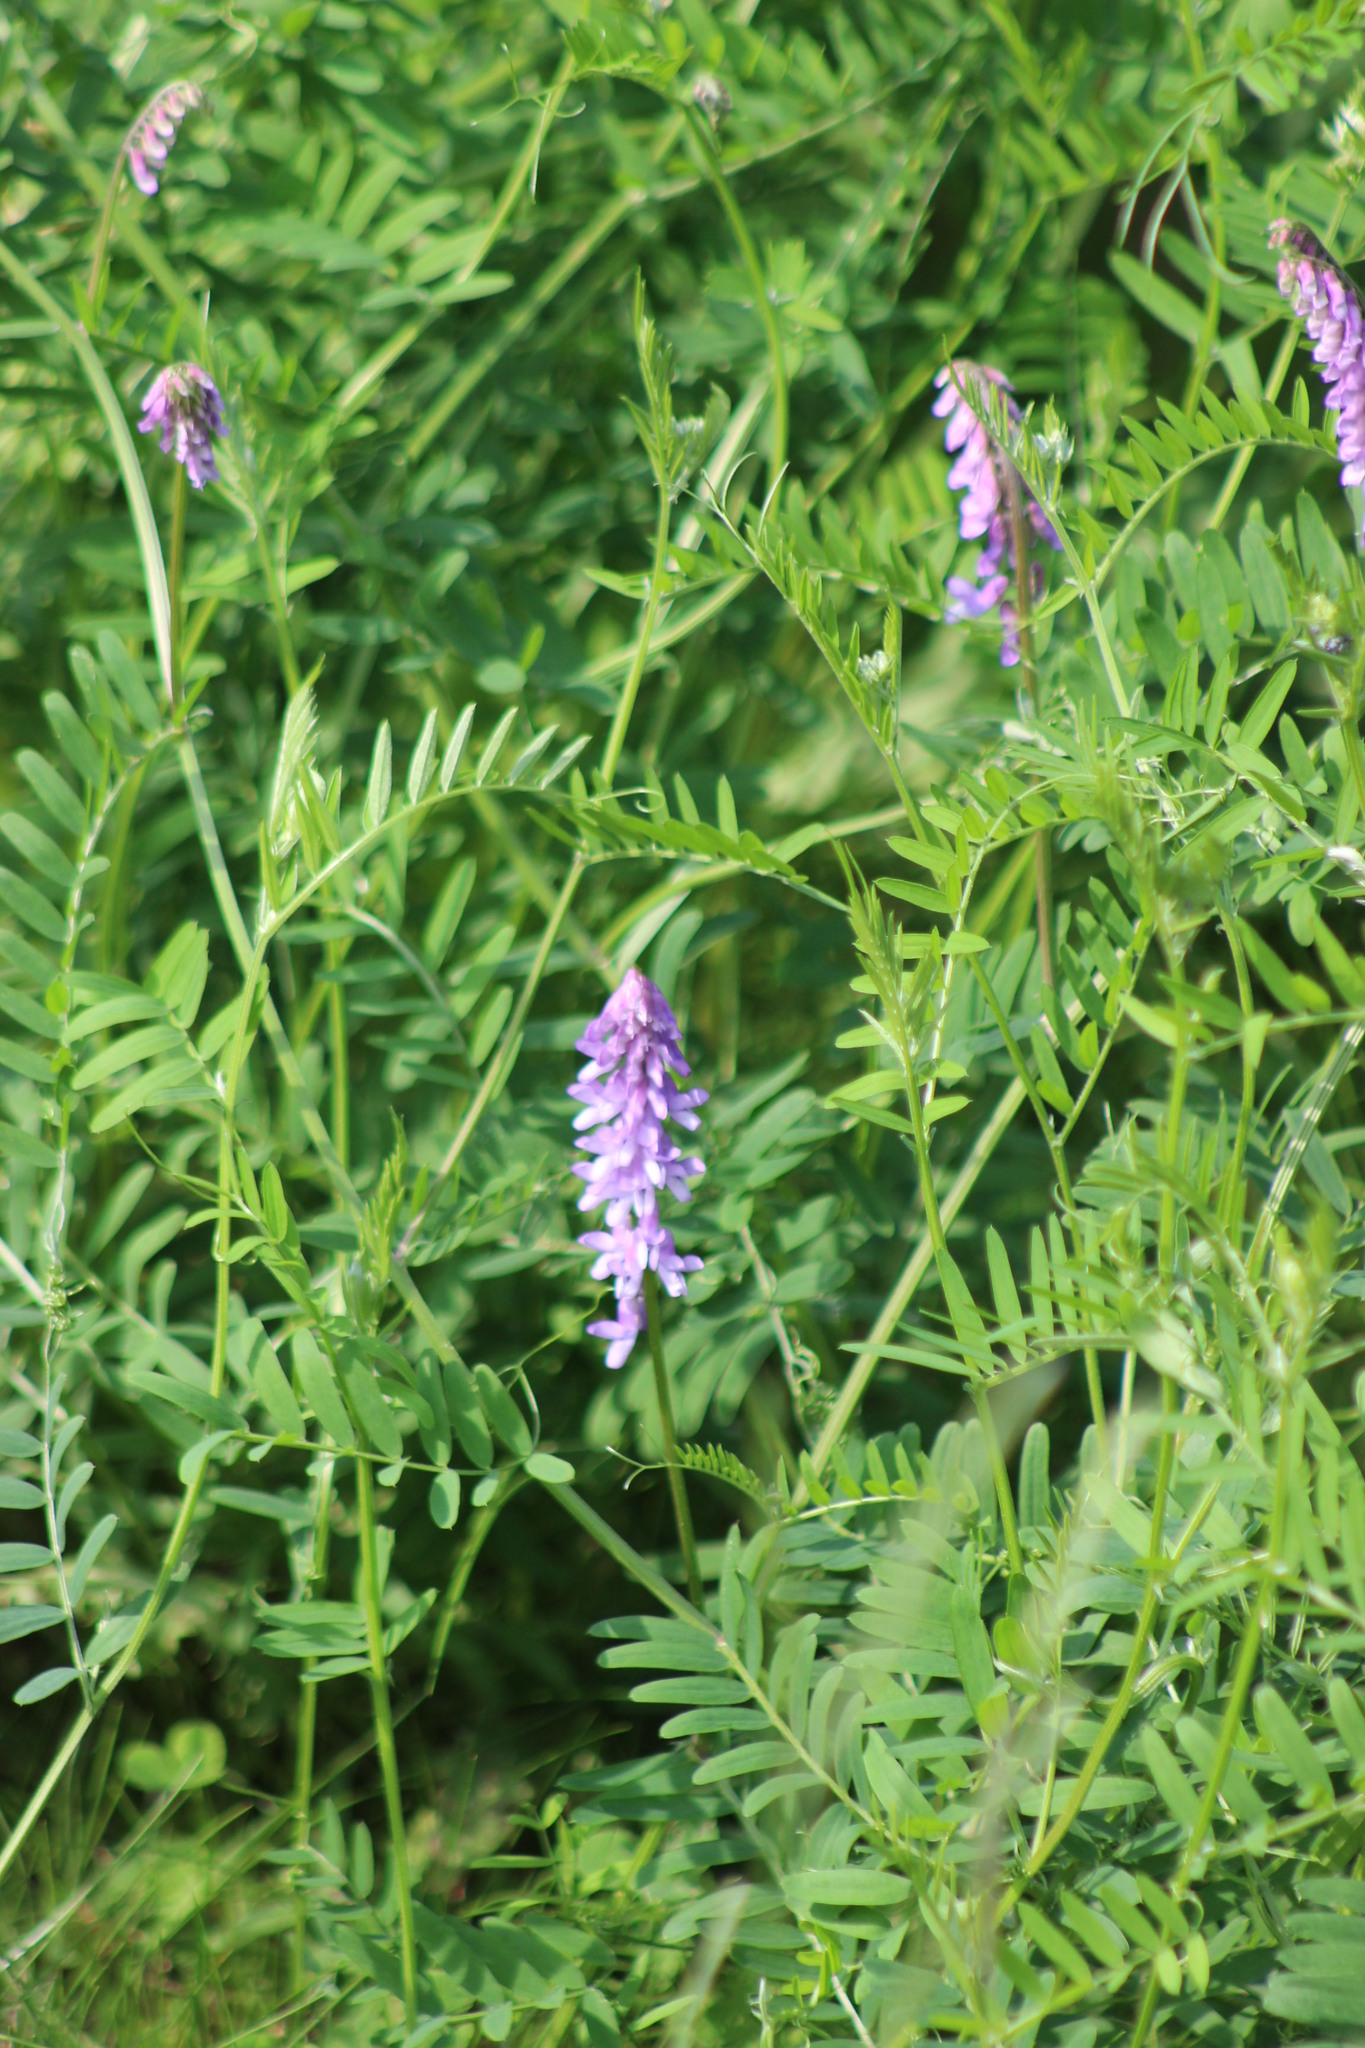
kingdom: Plantae
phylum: Tracheophyta
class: Magnoliopsida
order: Fabales
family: Fabaceae
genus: Vicia
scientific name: Vicia cracca
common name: Bird vetch
